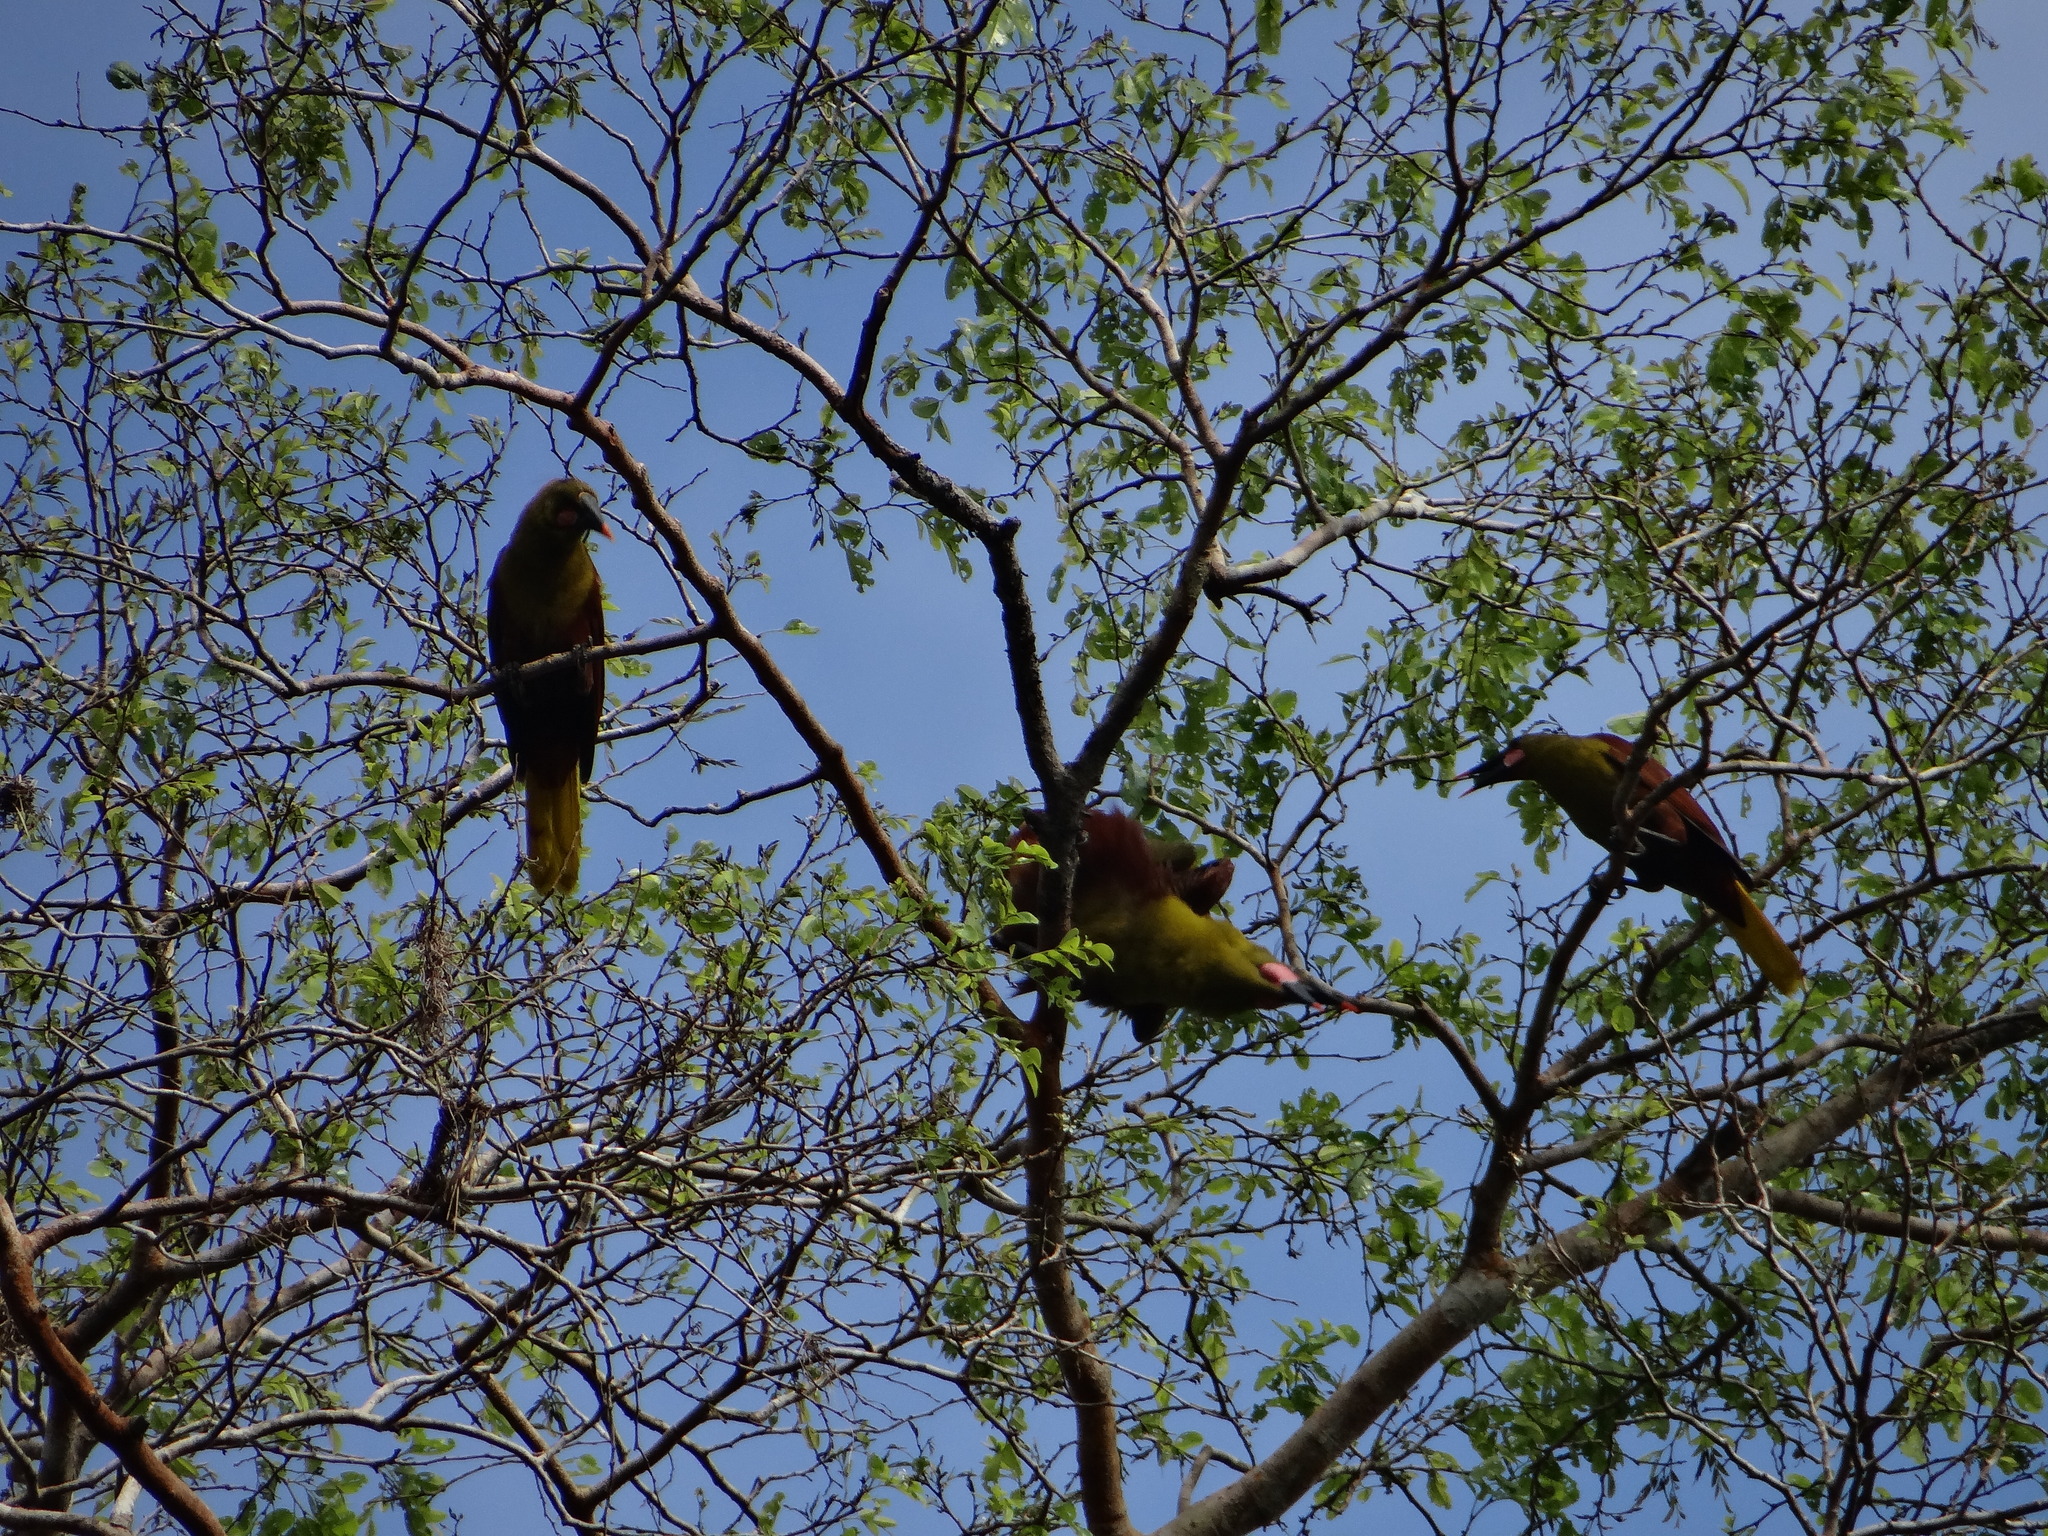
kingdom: Animalia
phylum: Chordata
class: Aves
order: Passeriformes
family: Icteridae
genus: Psarocolius
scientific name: Psarocolius bifasciatus
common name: Olive oropendola
